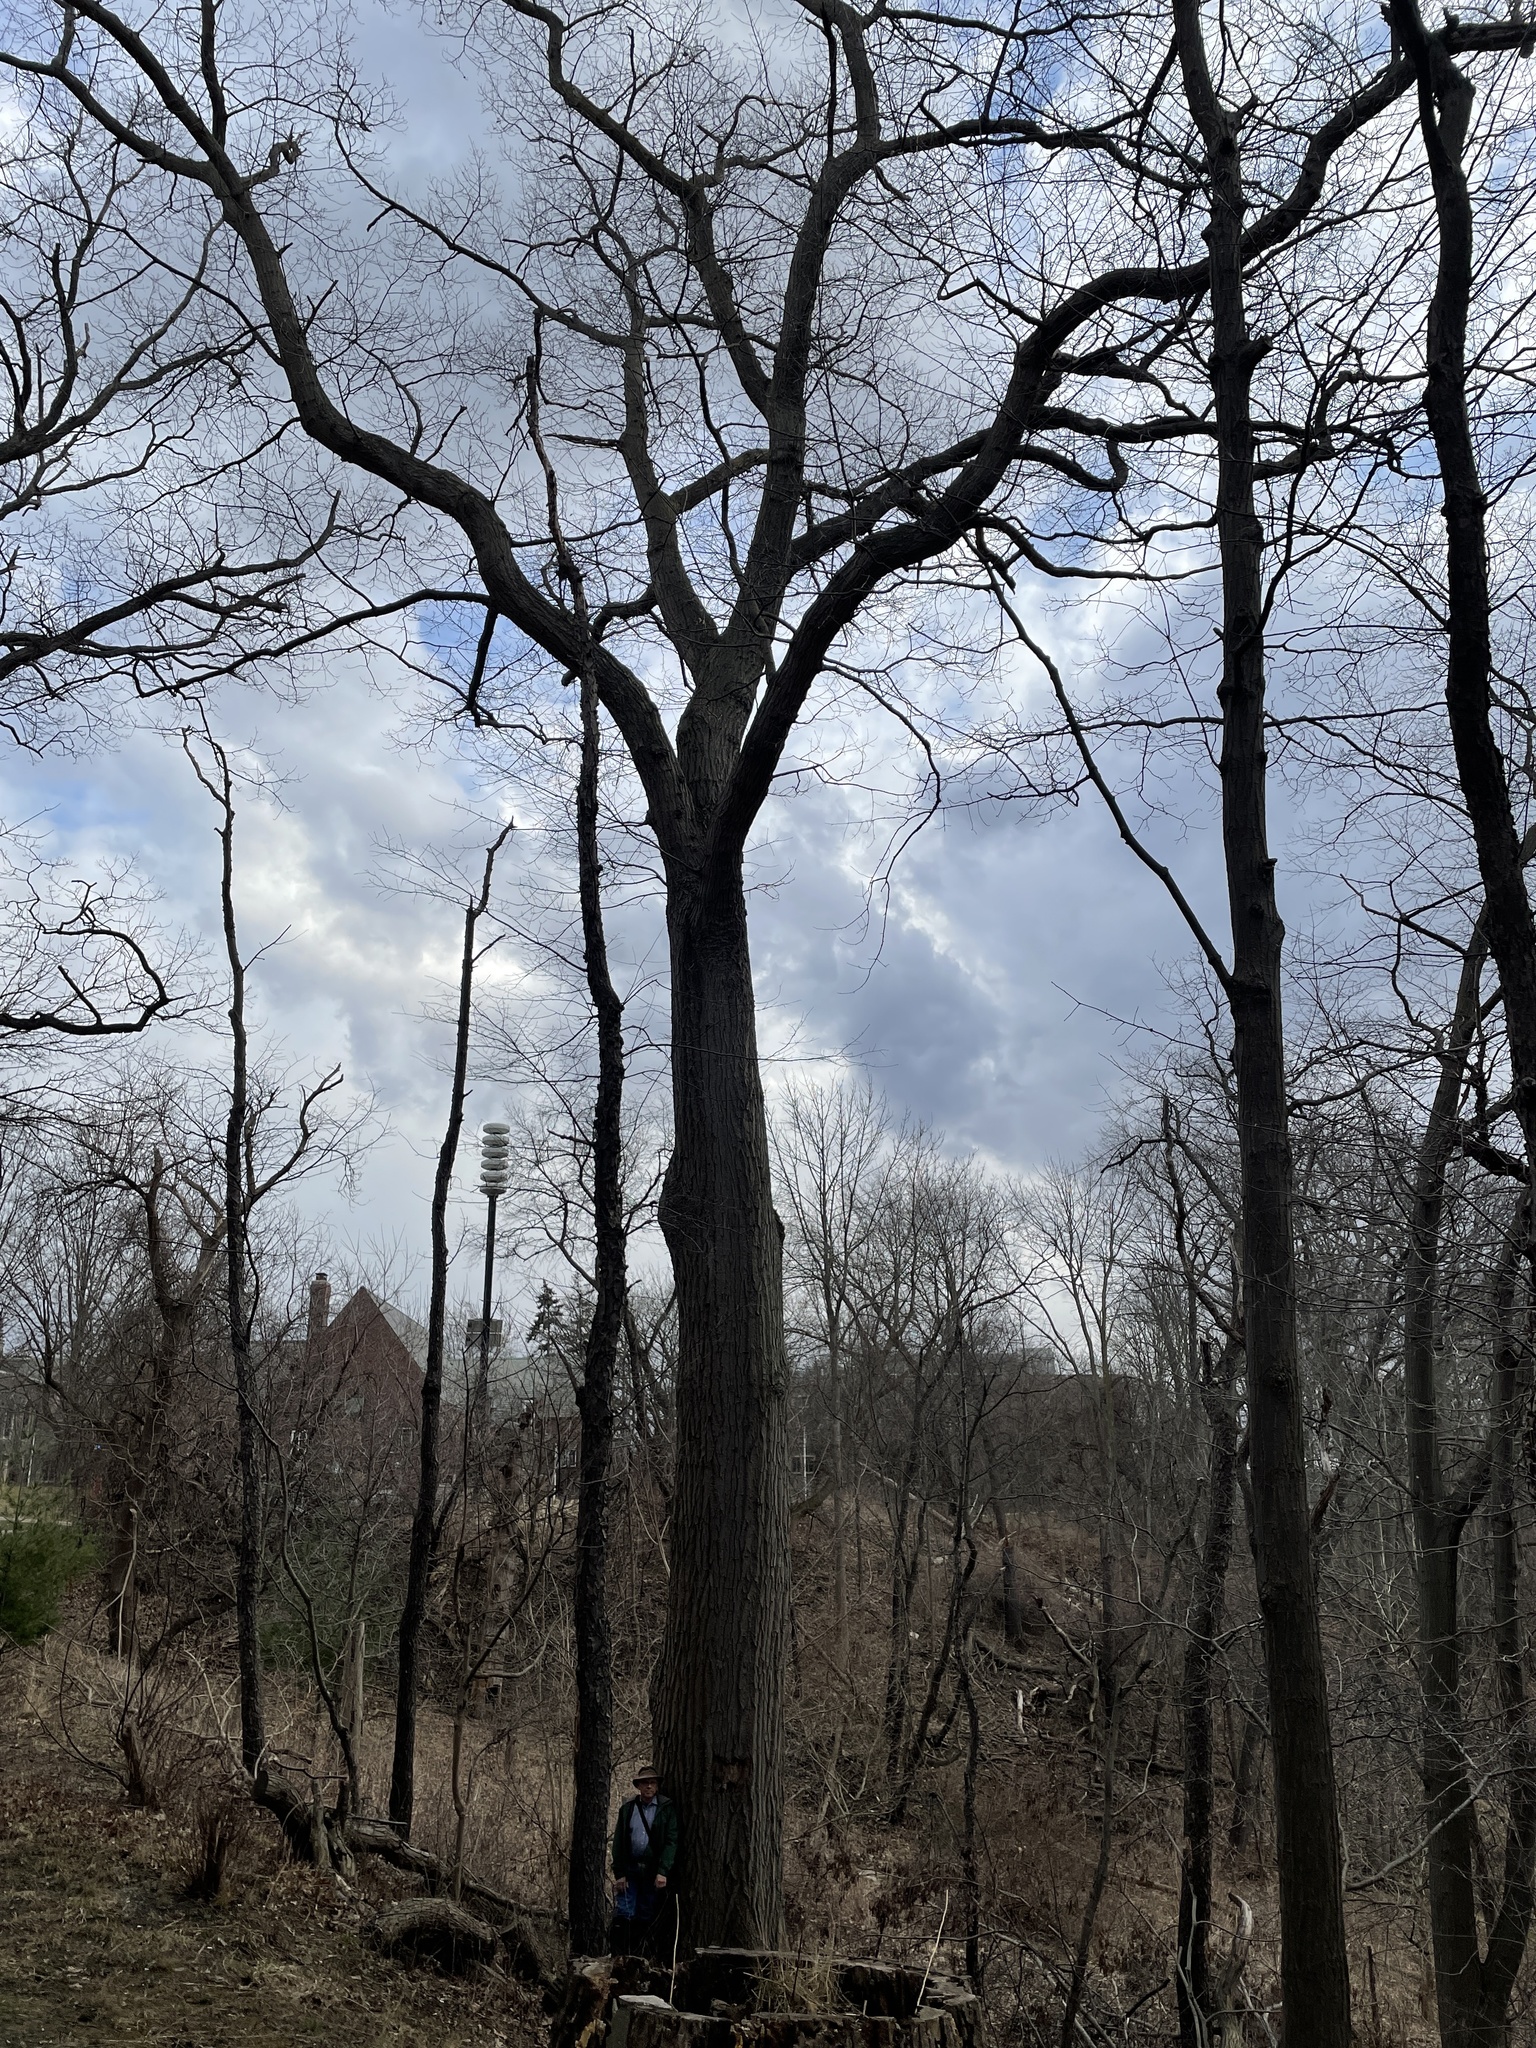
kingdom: Plantae
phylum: Tracheophyta
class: Magnoliopsida
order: Fagales
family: Fagaceae
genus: Quercus
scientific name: Quercus rubra
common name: Red oak
